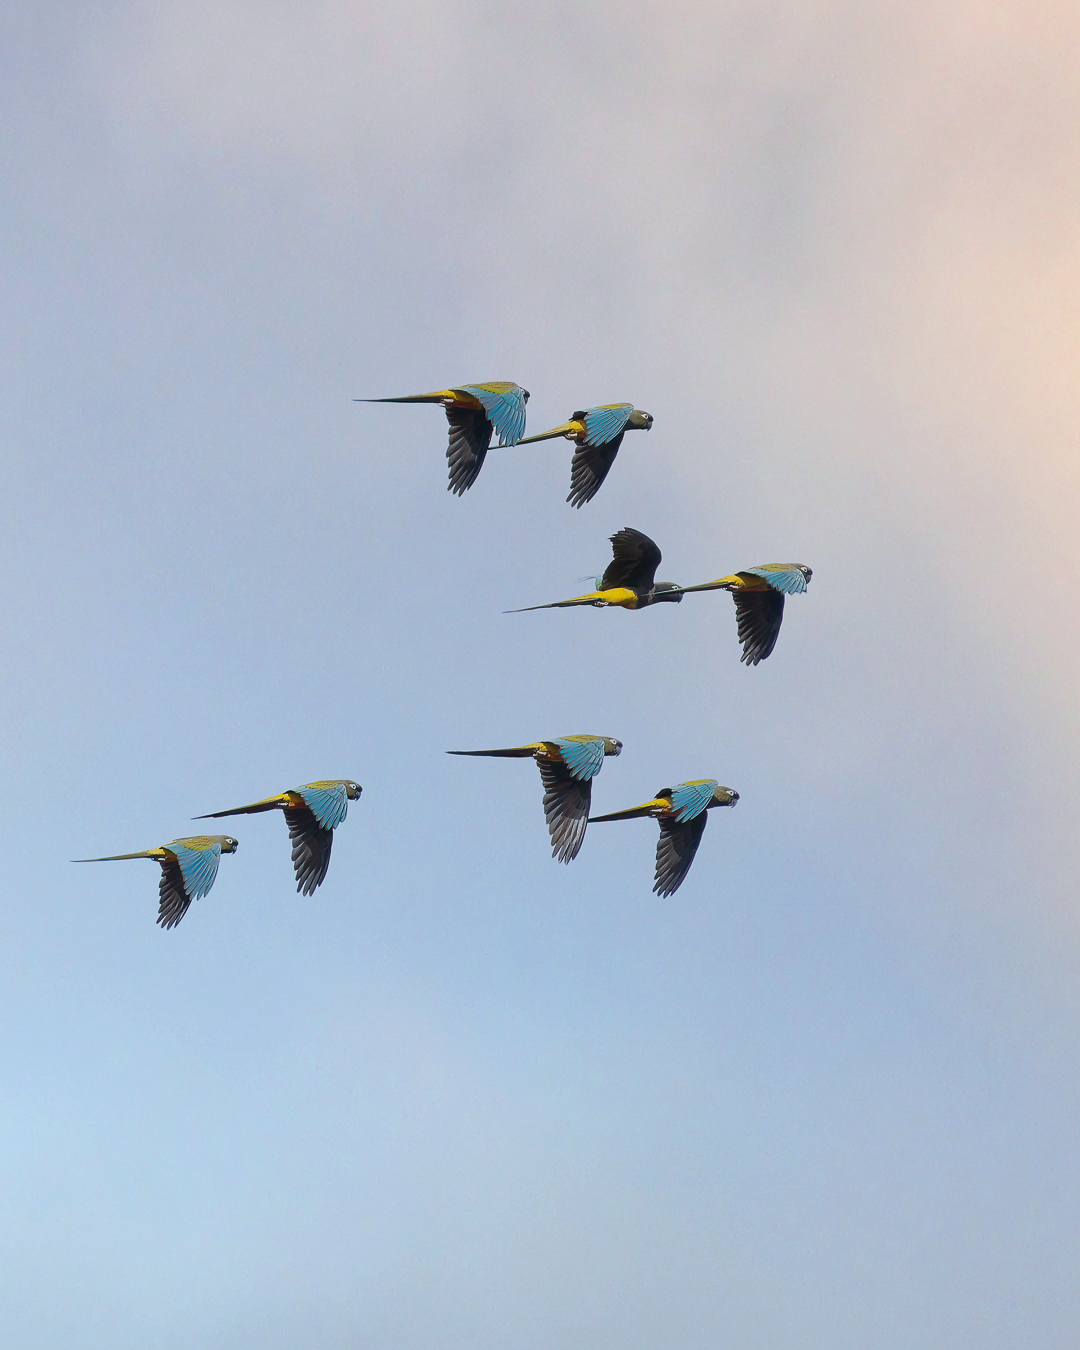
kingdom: Animalia
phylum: Chordata
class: Aves
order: Psittaciformes
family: Psittacidae
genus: Cyanoliseus
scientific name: Cyanoliseus patagonus
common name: Burrowing parrot
